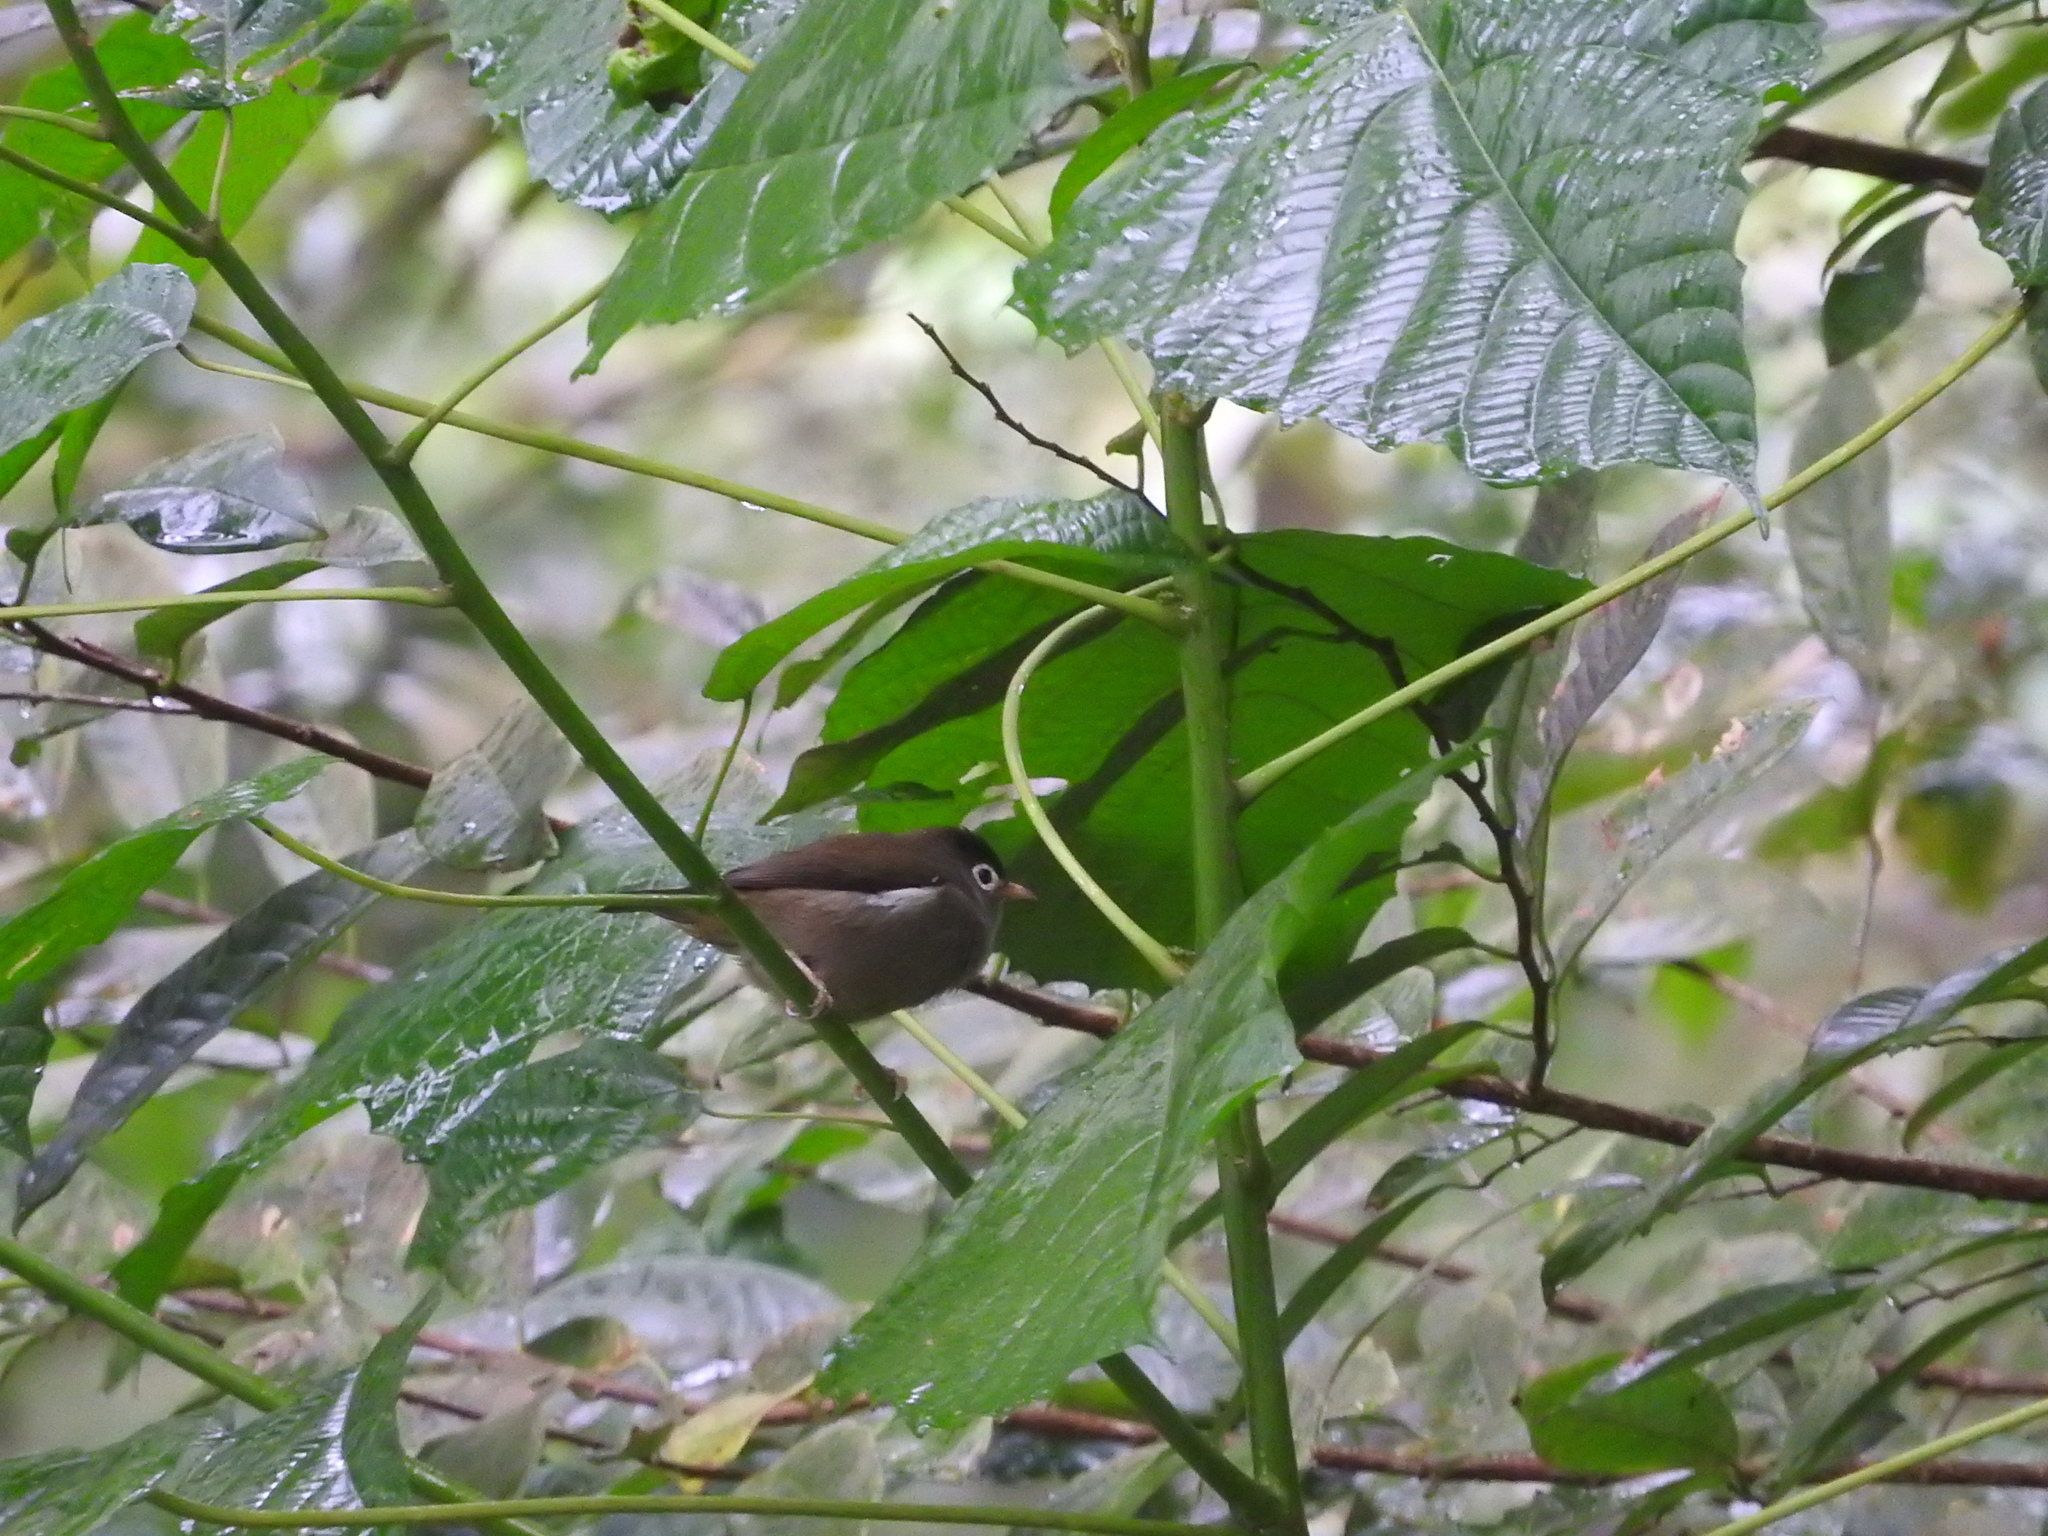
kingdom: Animalia
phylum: Chordata
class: Aves
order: Passeriformes
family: Zosteropidae
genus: Zosterops
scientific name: Zosterops lugubris
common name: Black-capped speirops
